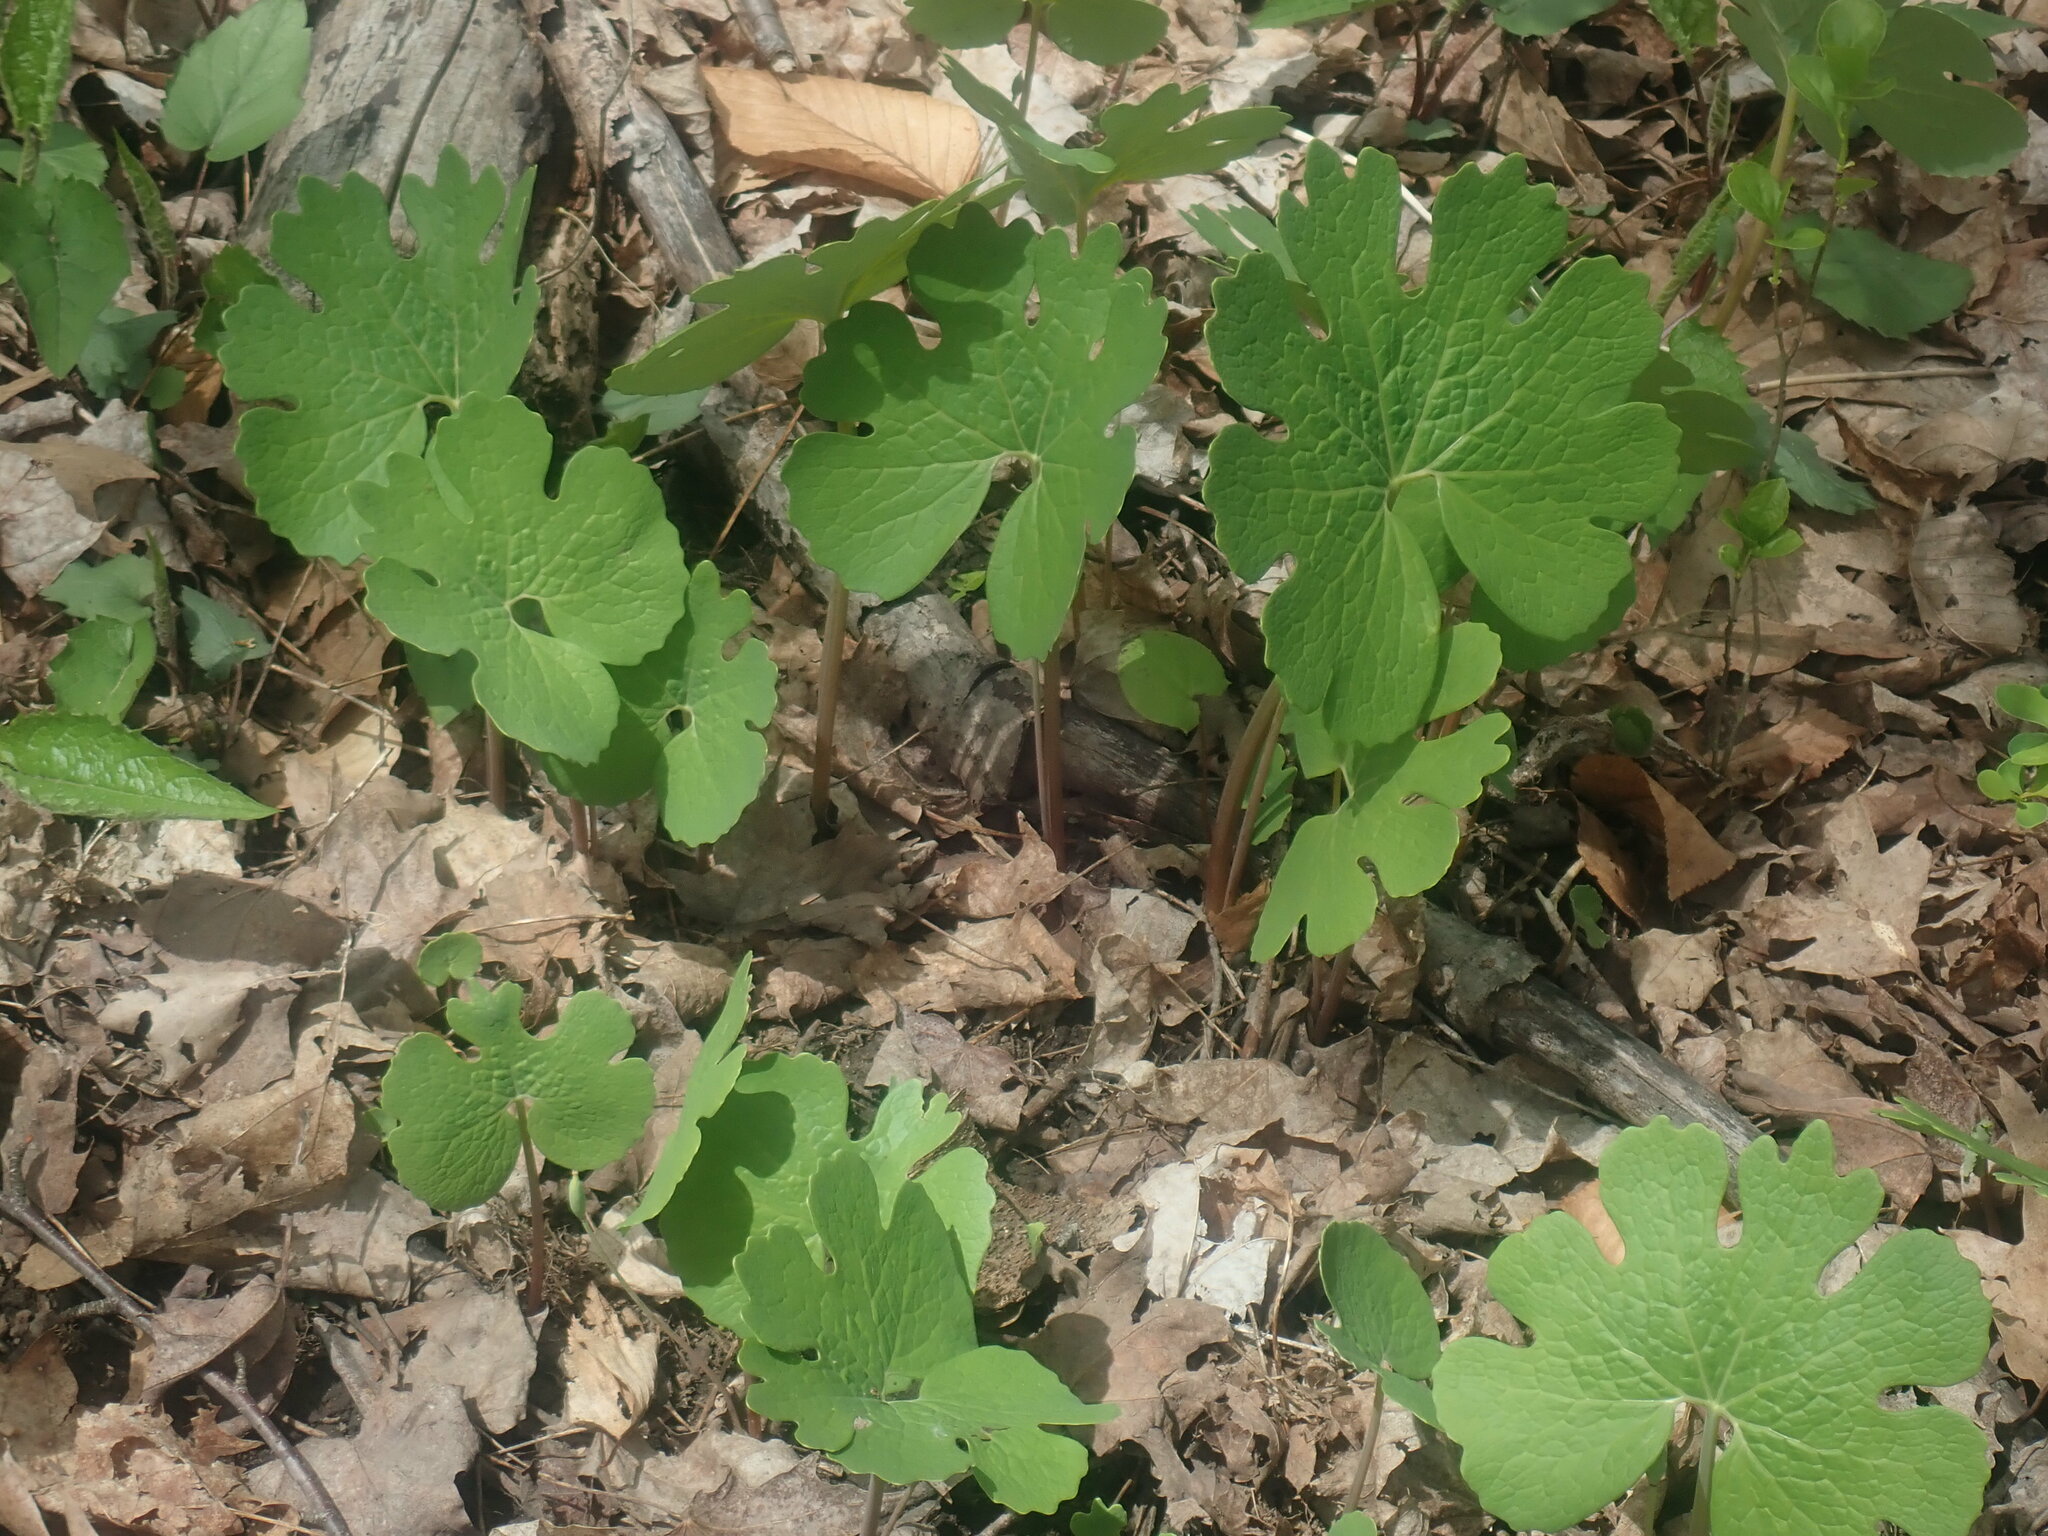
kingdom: Plantae
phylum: Tracheophyta
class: Magnoliopsida
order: Ranunculales
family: Papaveraceae
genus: Sanguinaria
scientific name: Sanguinaria canadensis
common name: Bloodroot
